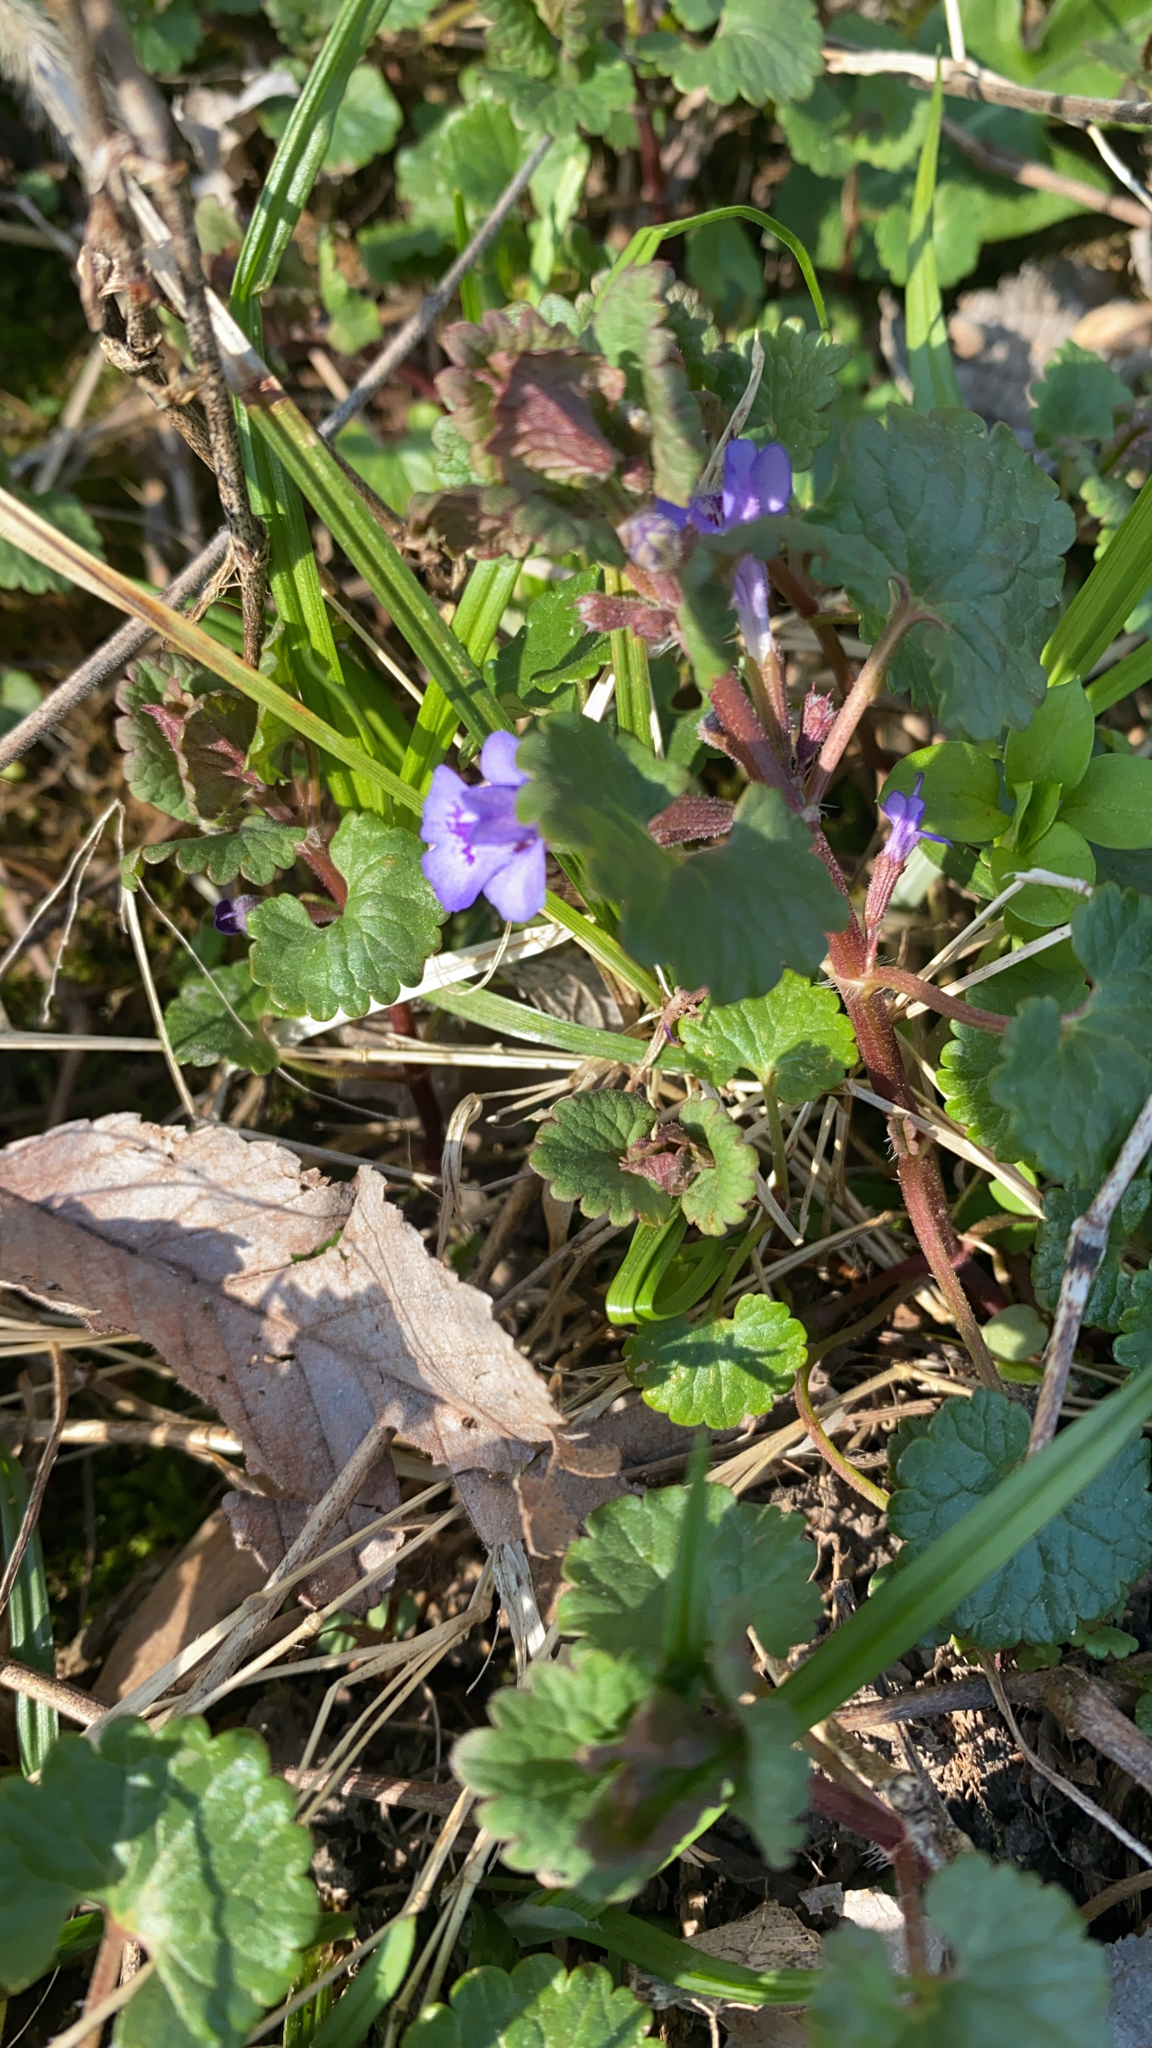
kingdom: Plantae
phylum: Tracheophyta
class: Magnoliopsida
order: Lamiales
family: Lamiaceae
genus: Glechoma
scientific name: Glechoma hederacea
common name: Ground ivy
